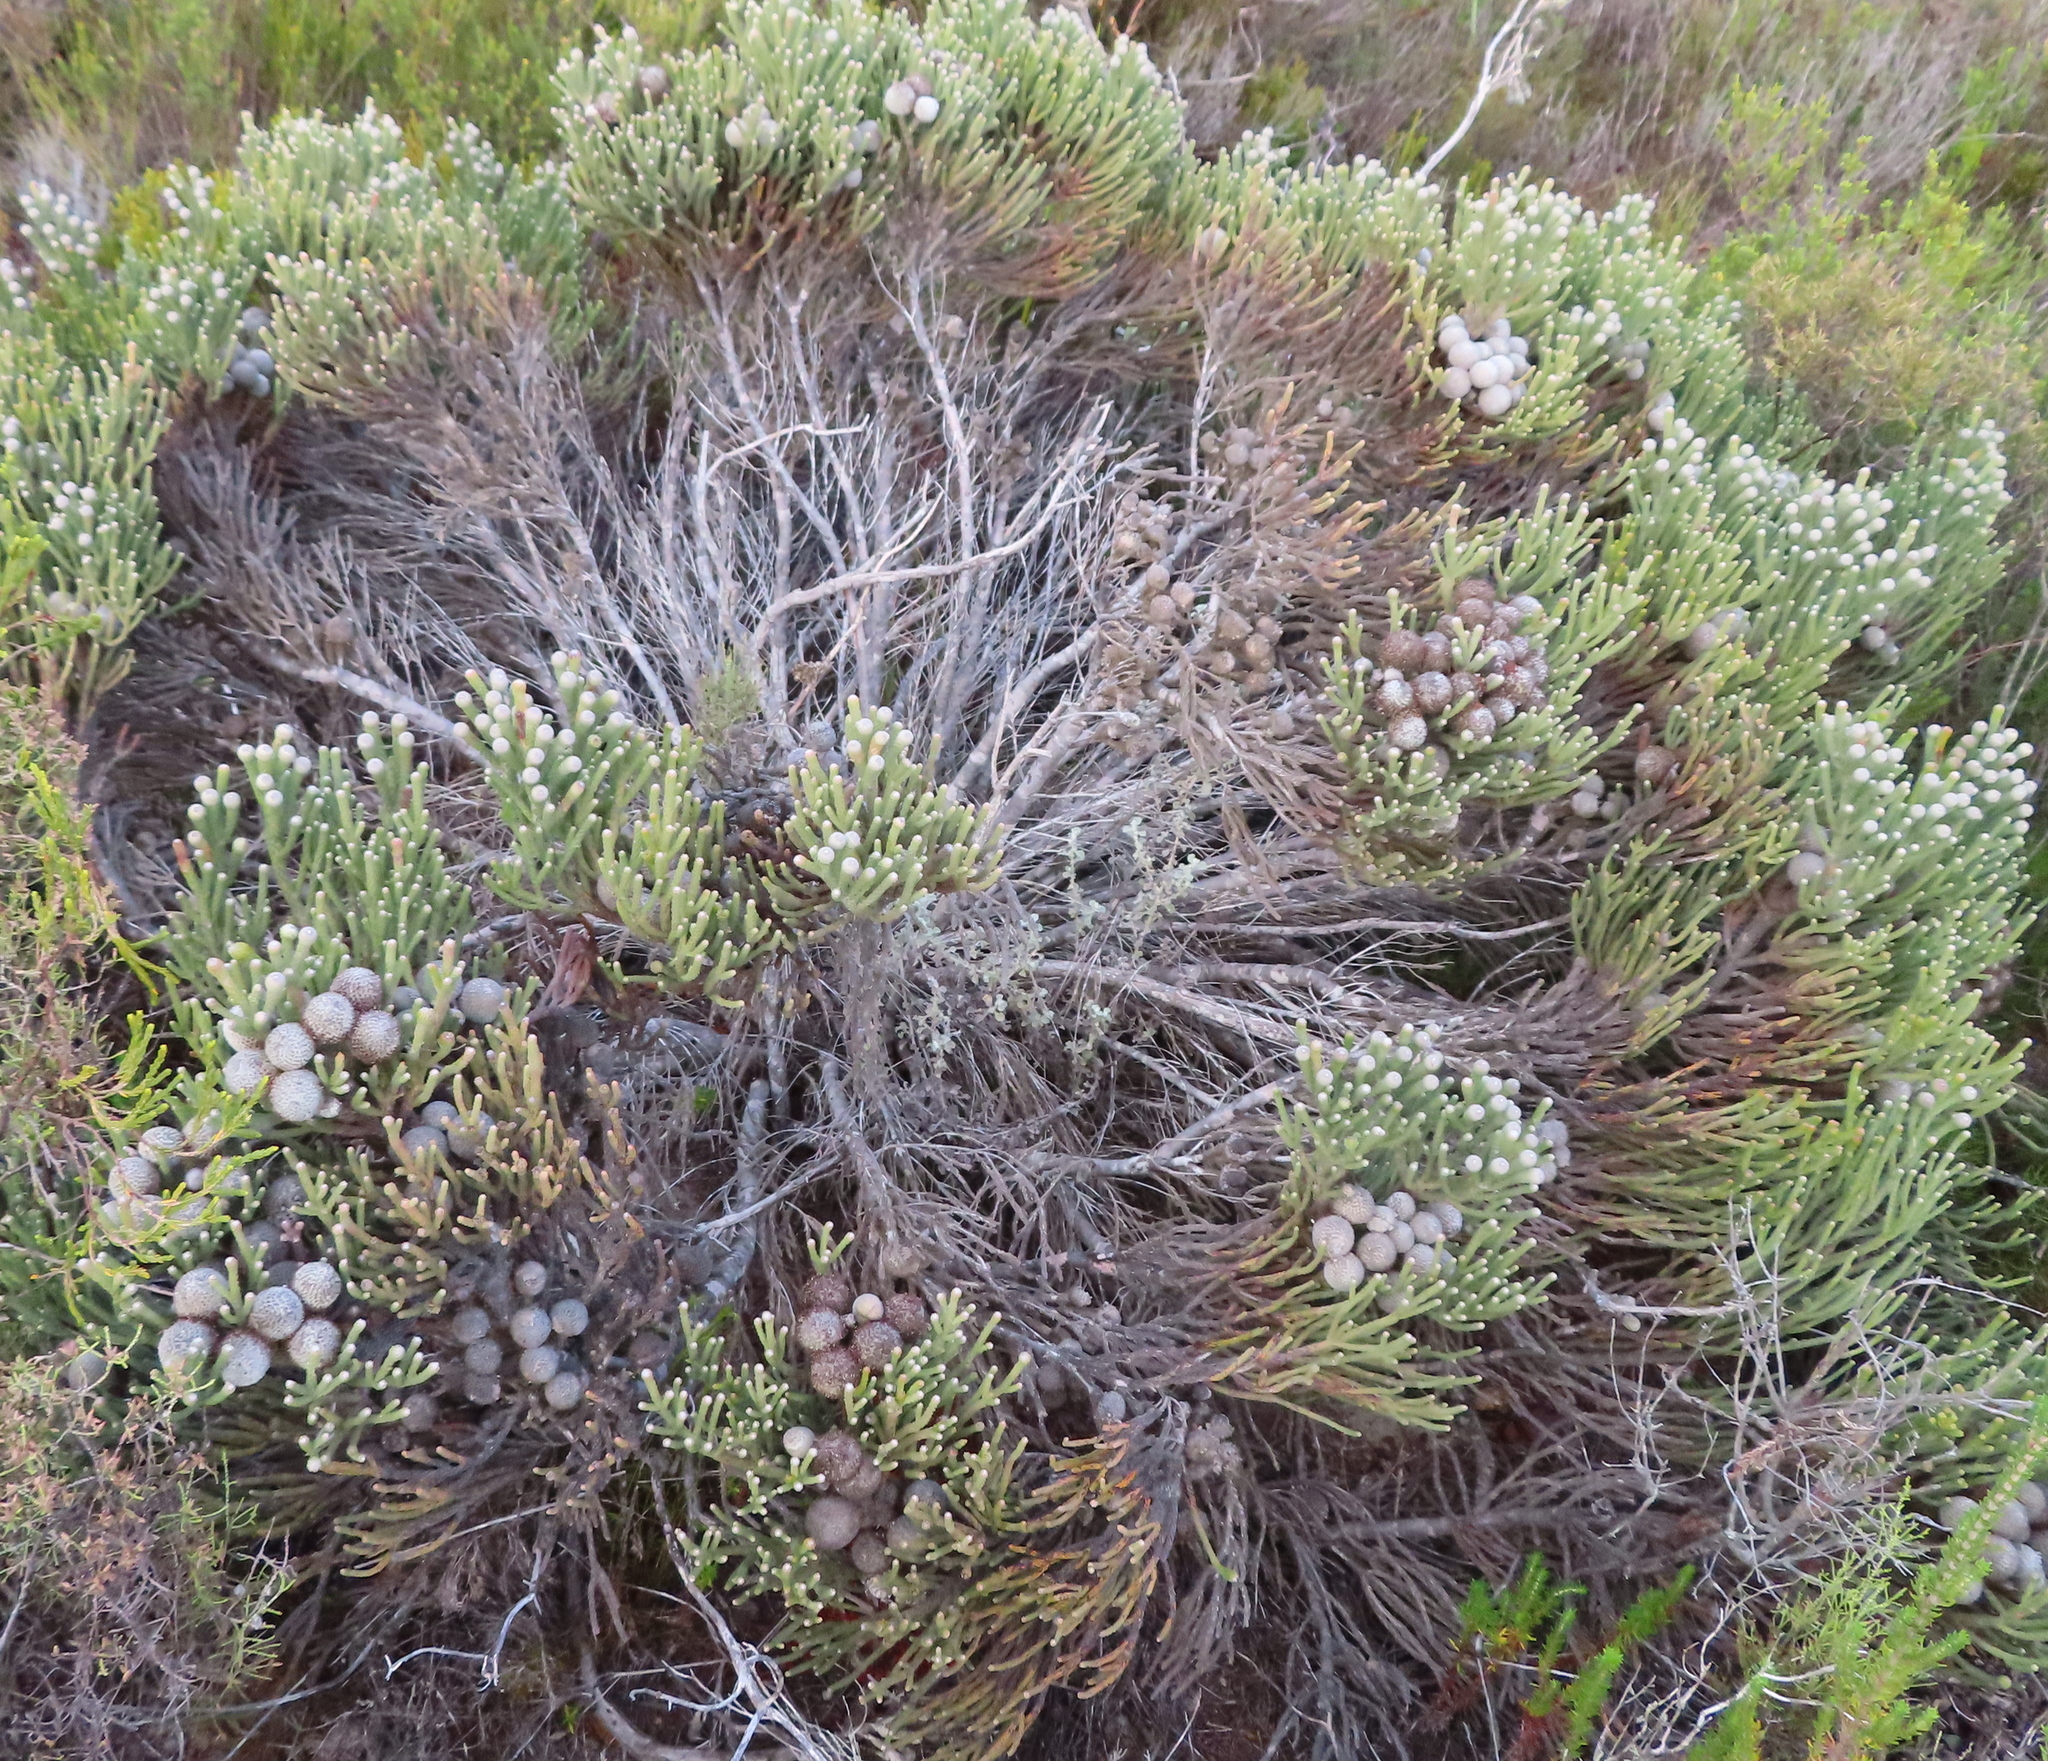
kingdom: Plantae
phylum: Tracheophyta
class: Magnoliopsida
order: Bruniales
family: Bruniaceae
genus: Brunia
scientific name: Brunia laevis
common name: Silver brunia
